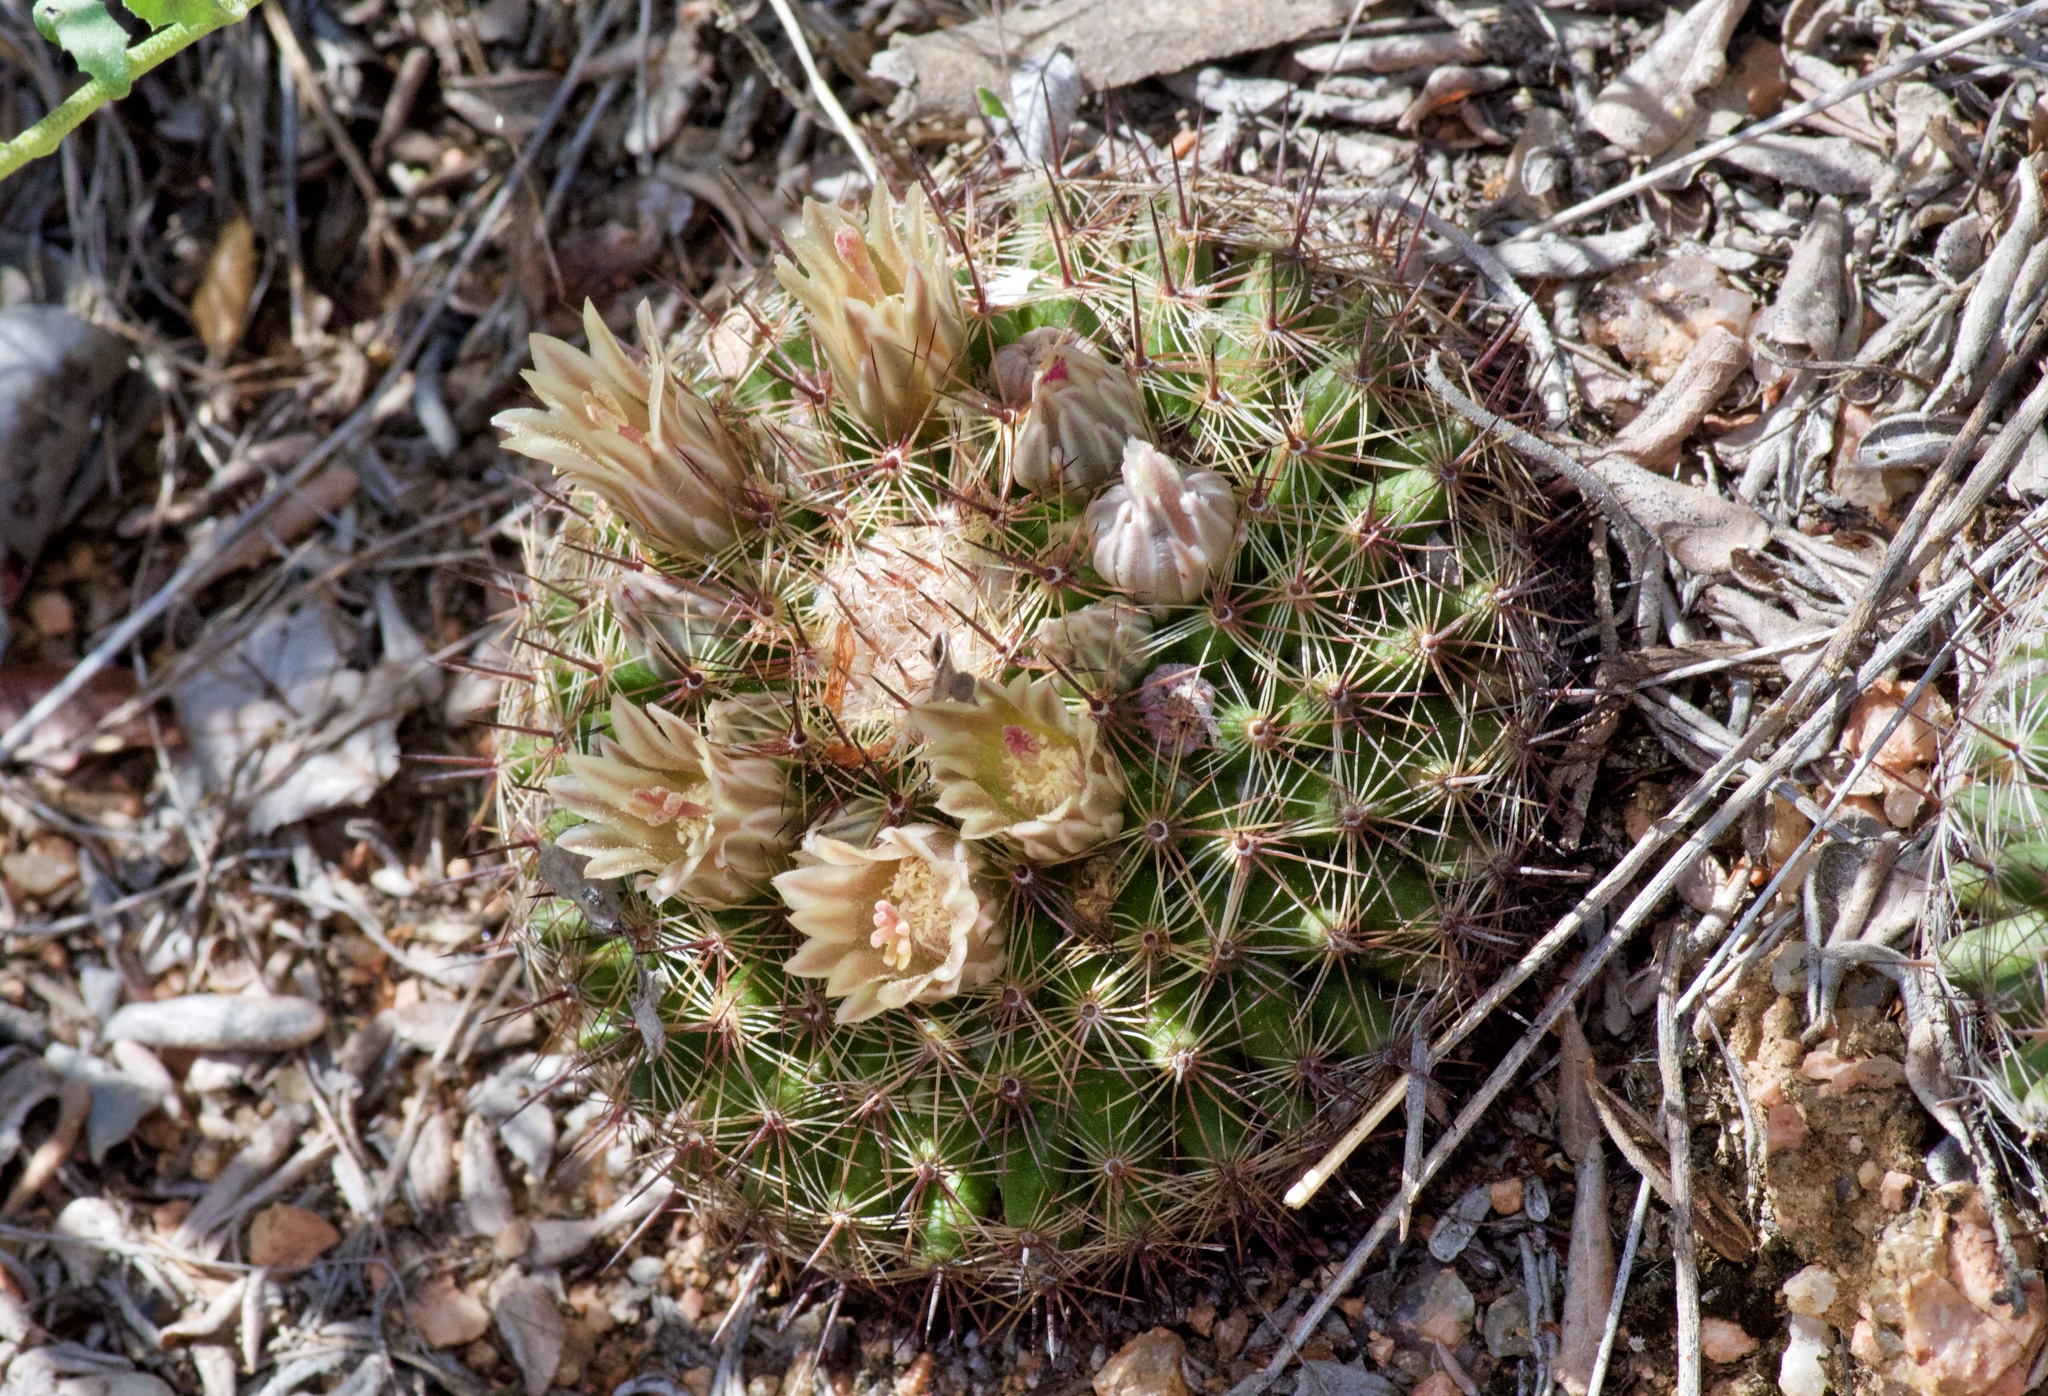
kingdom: Plantae
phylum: Tracheophyta
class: Magnoliopsida
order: Caryophyllales
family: Cactaceae
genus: Mammillaria
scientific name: Mammillaria heyderi
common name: Little nipple cactus
